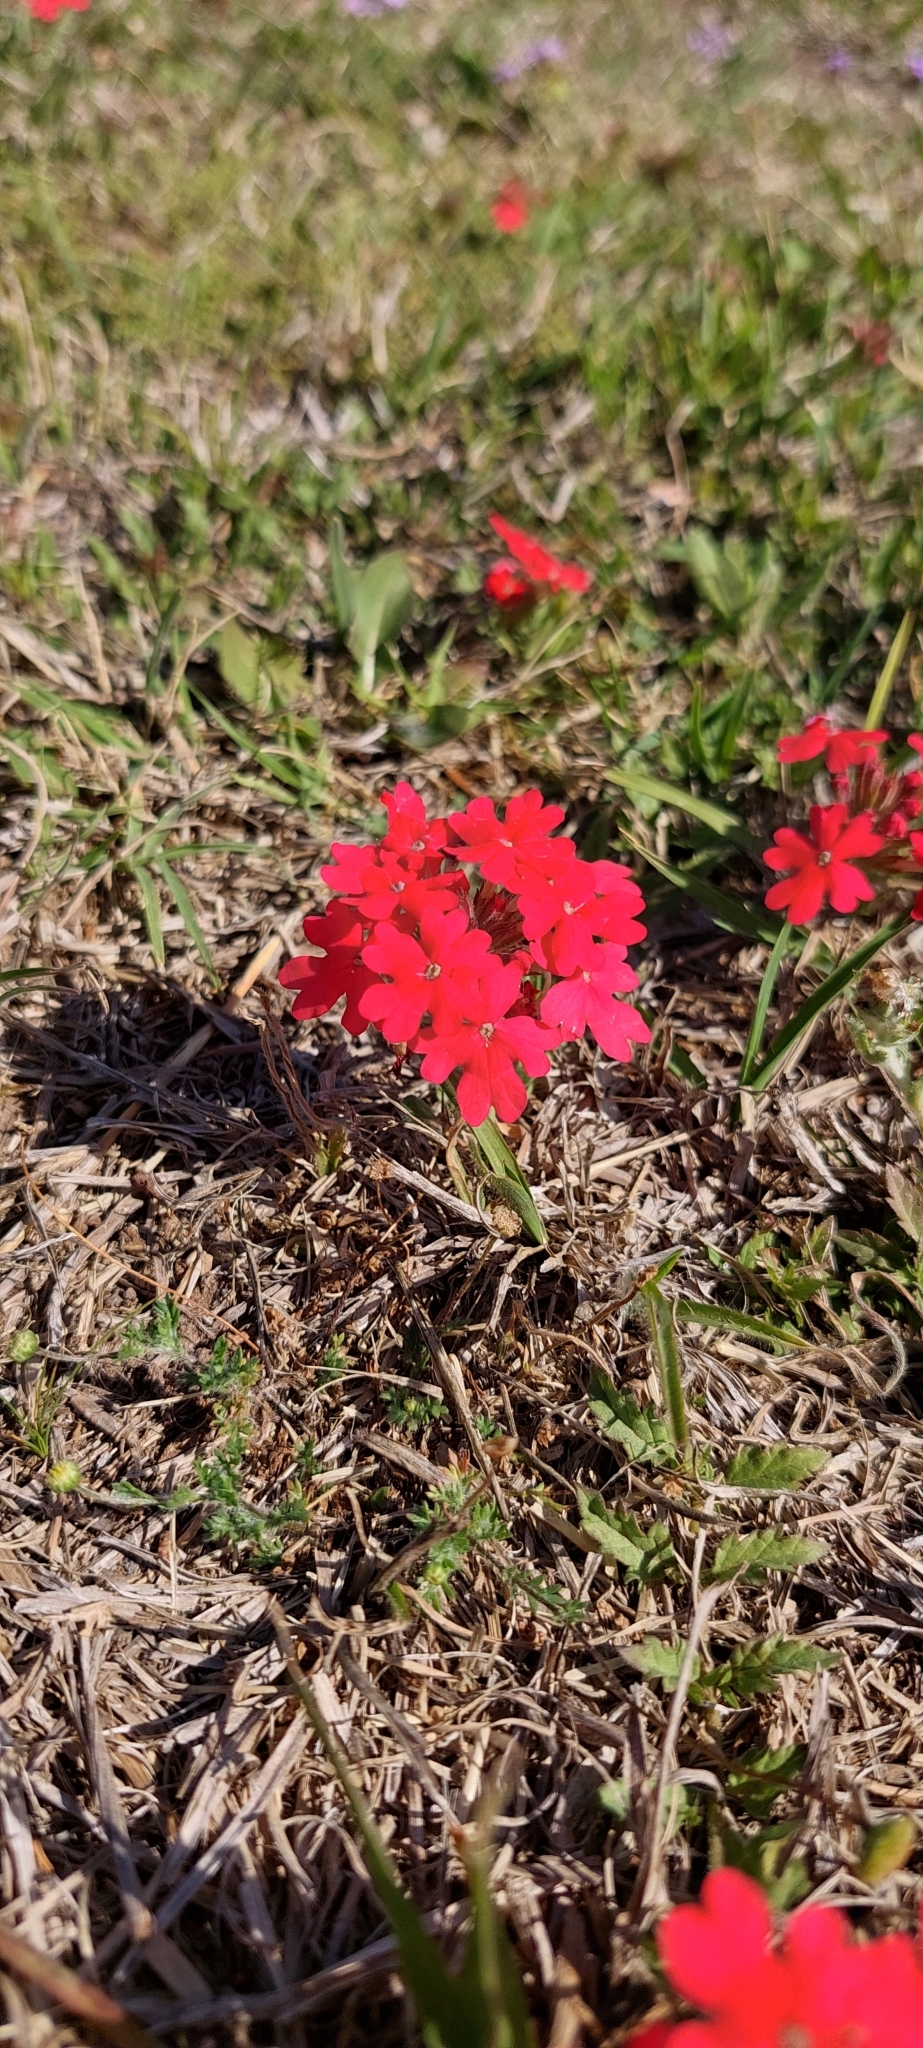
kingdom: Plantae
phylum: Tracheophyta
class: Magnoliopsida
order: Lamiales
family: Verbenaceae
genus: Verbena
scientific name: Verbena peruviana
